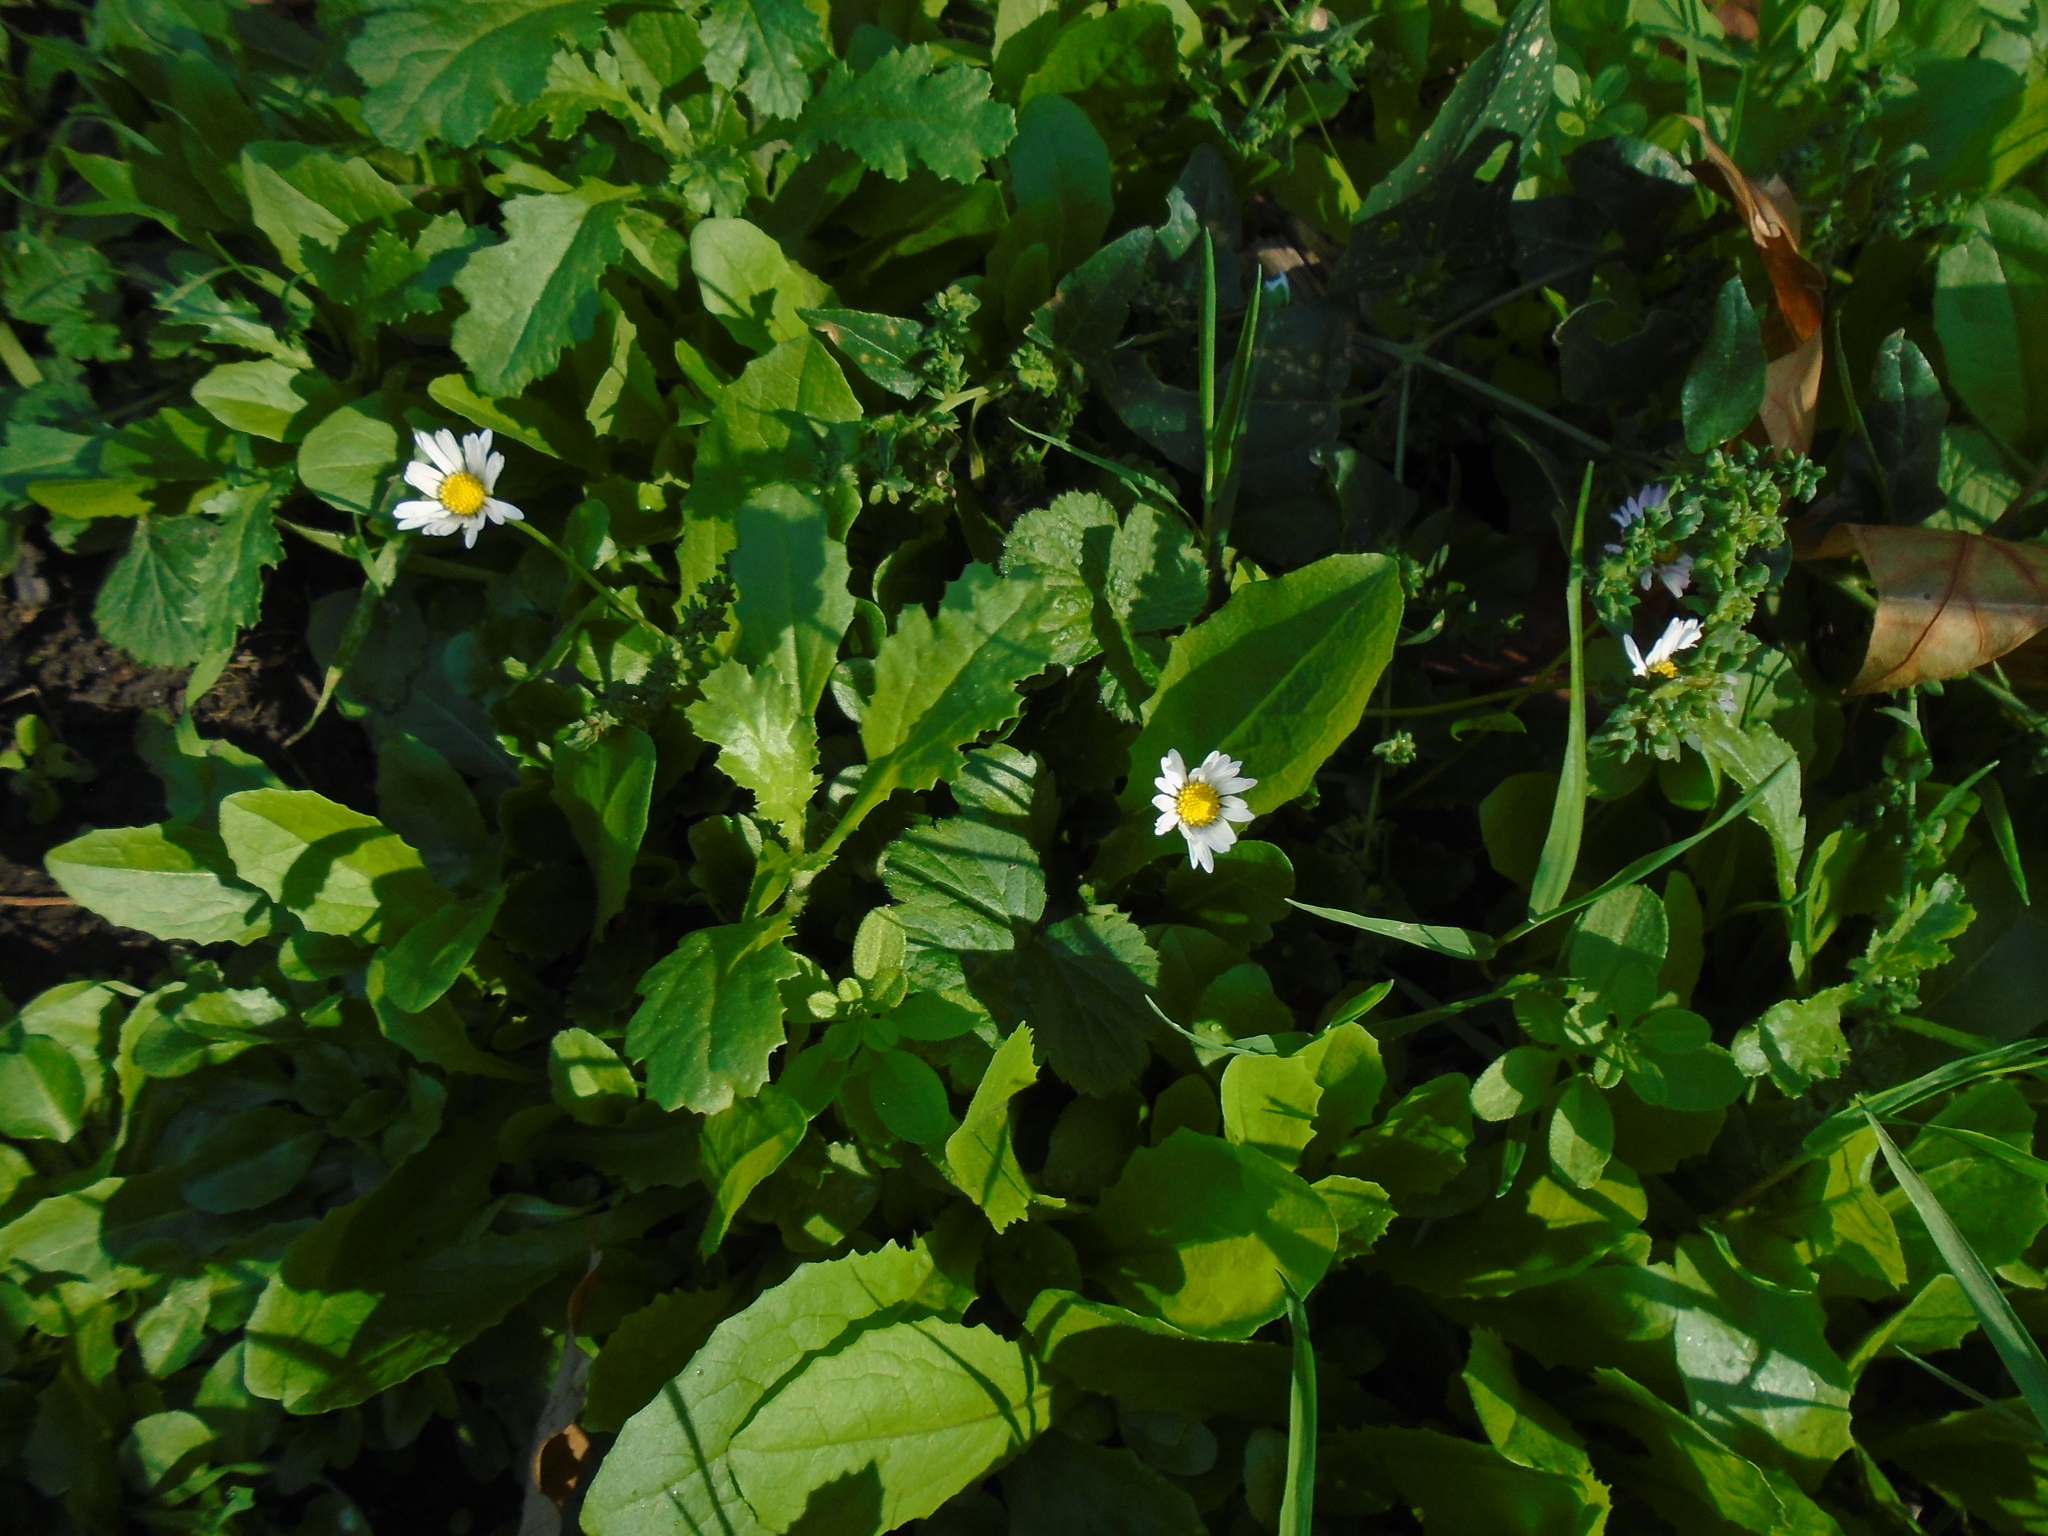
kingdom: Plantae
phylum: Tracheophyta
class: Magnoliopsida
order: Asterales
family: Asteraceae
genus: Bellis
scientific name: Bellis perennis
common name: Lawndaisy
